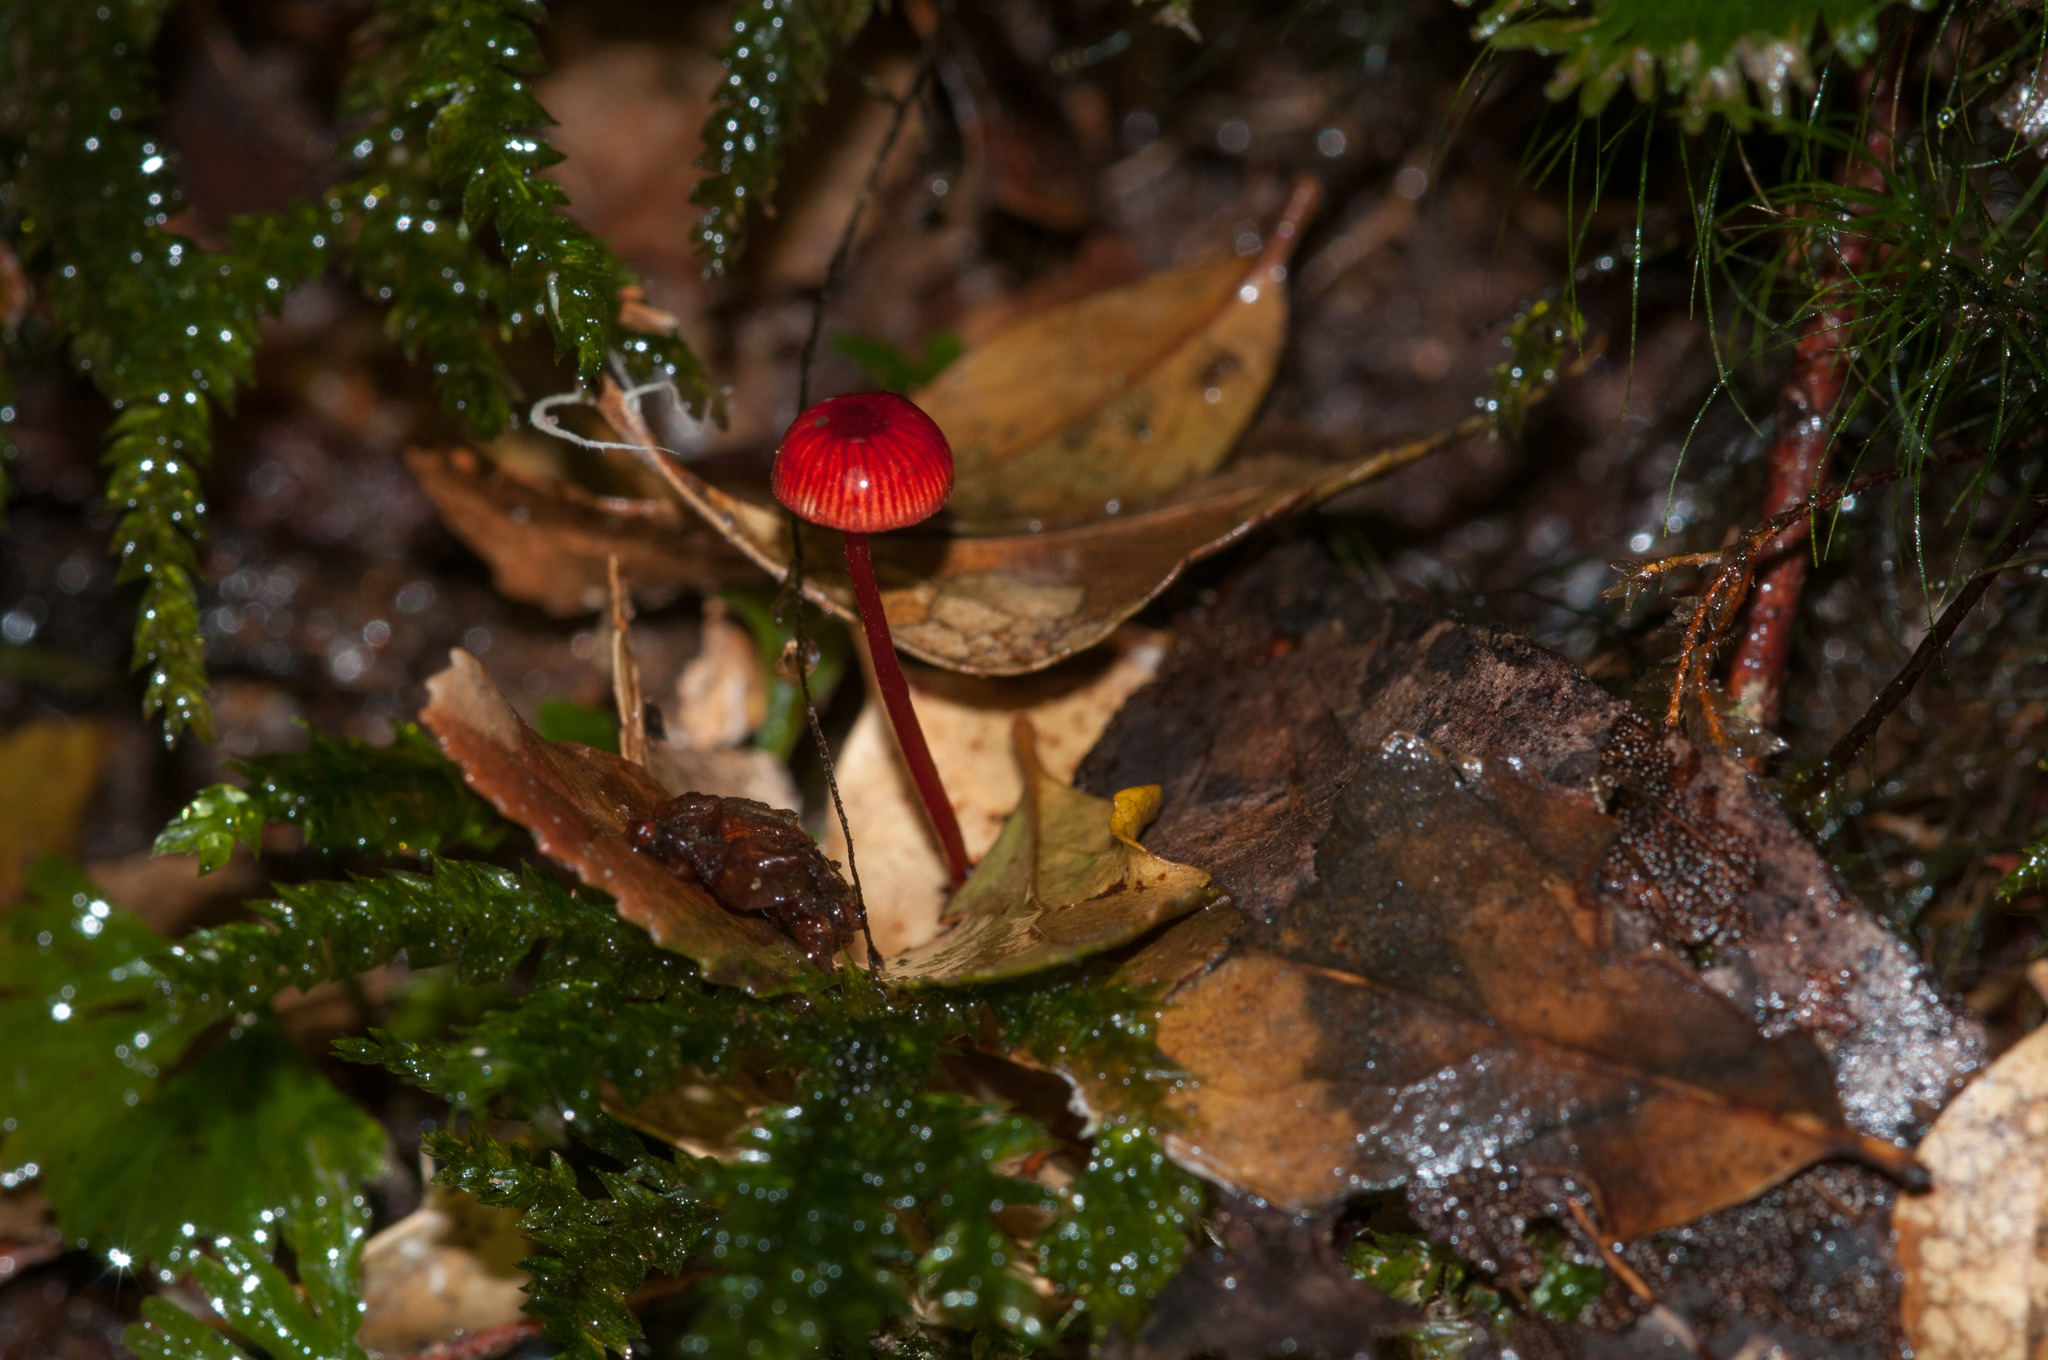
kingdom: Fungi
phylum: Basidiomycota
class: Agaricomycetes
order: Agaricales
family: Mycenaceae
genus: Cruentomycena
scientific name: Cruentomycena viscidocruenta
